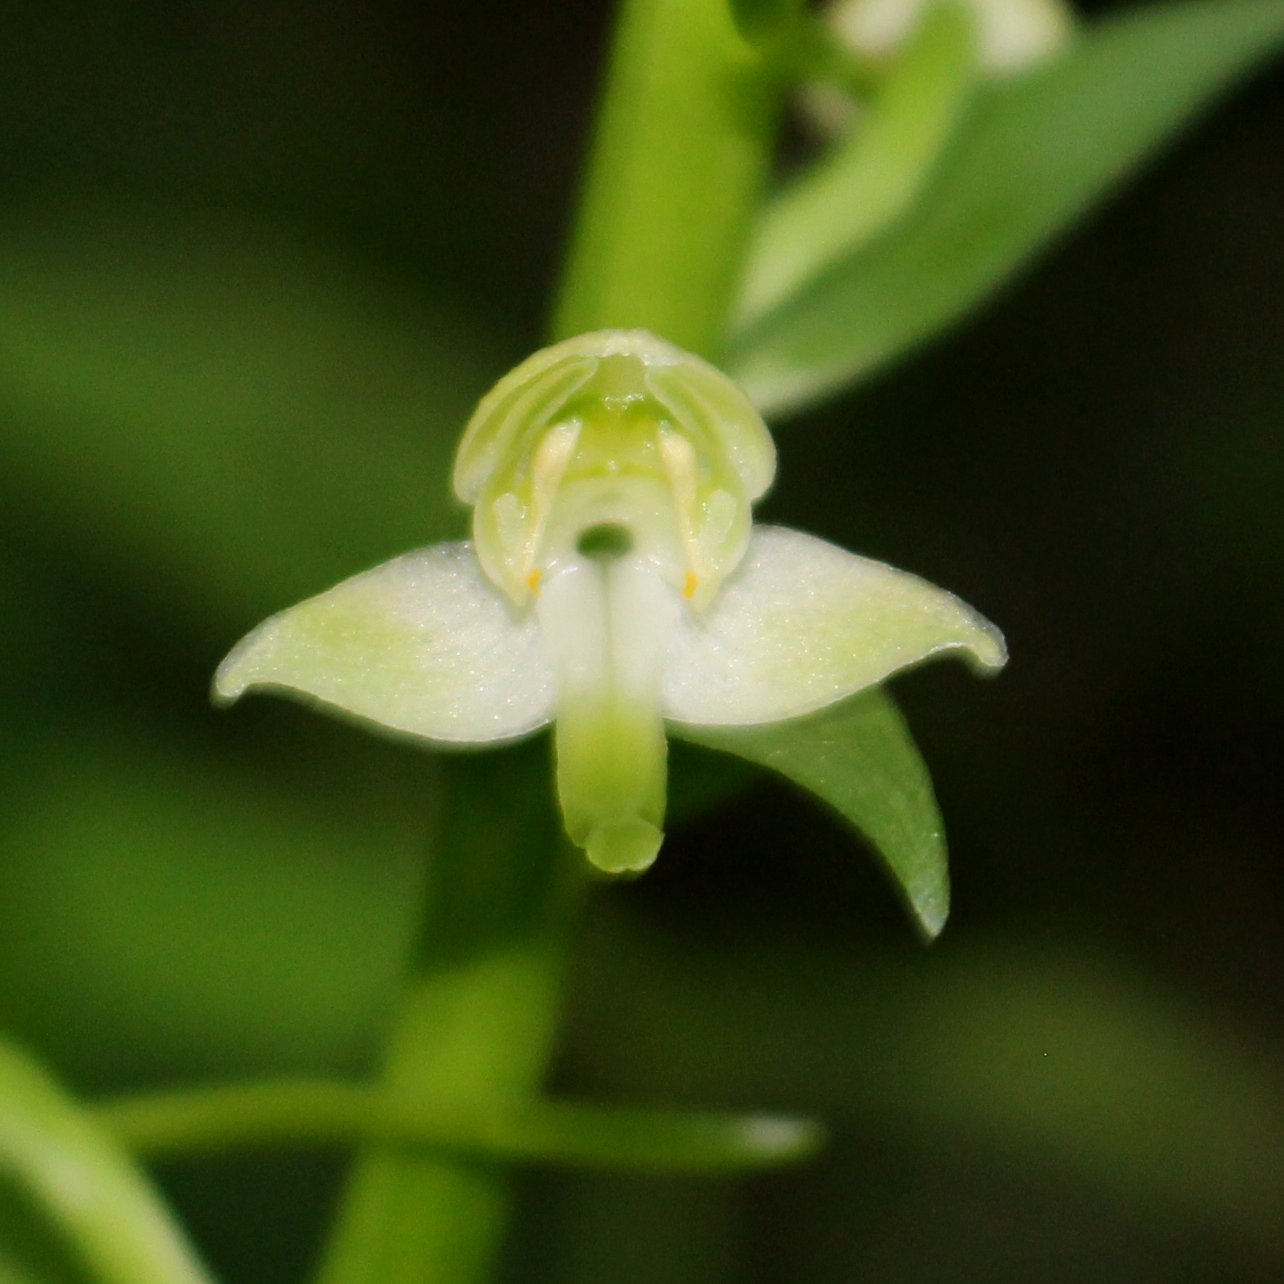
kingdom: Plantae
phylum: Tracheophyta
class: Liliopsida
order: Asparagales
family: Orchidaceae
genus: Platanthera
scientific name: Platanthera chlorantha
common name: Greater butterfly-orchid
